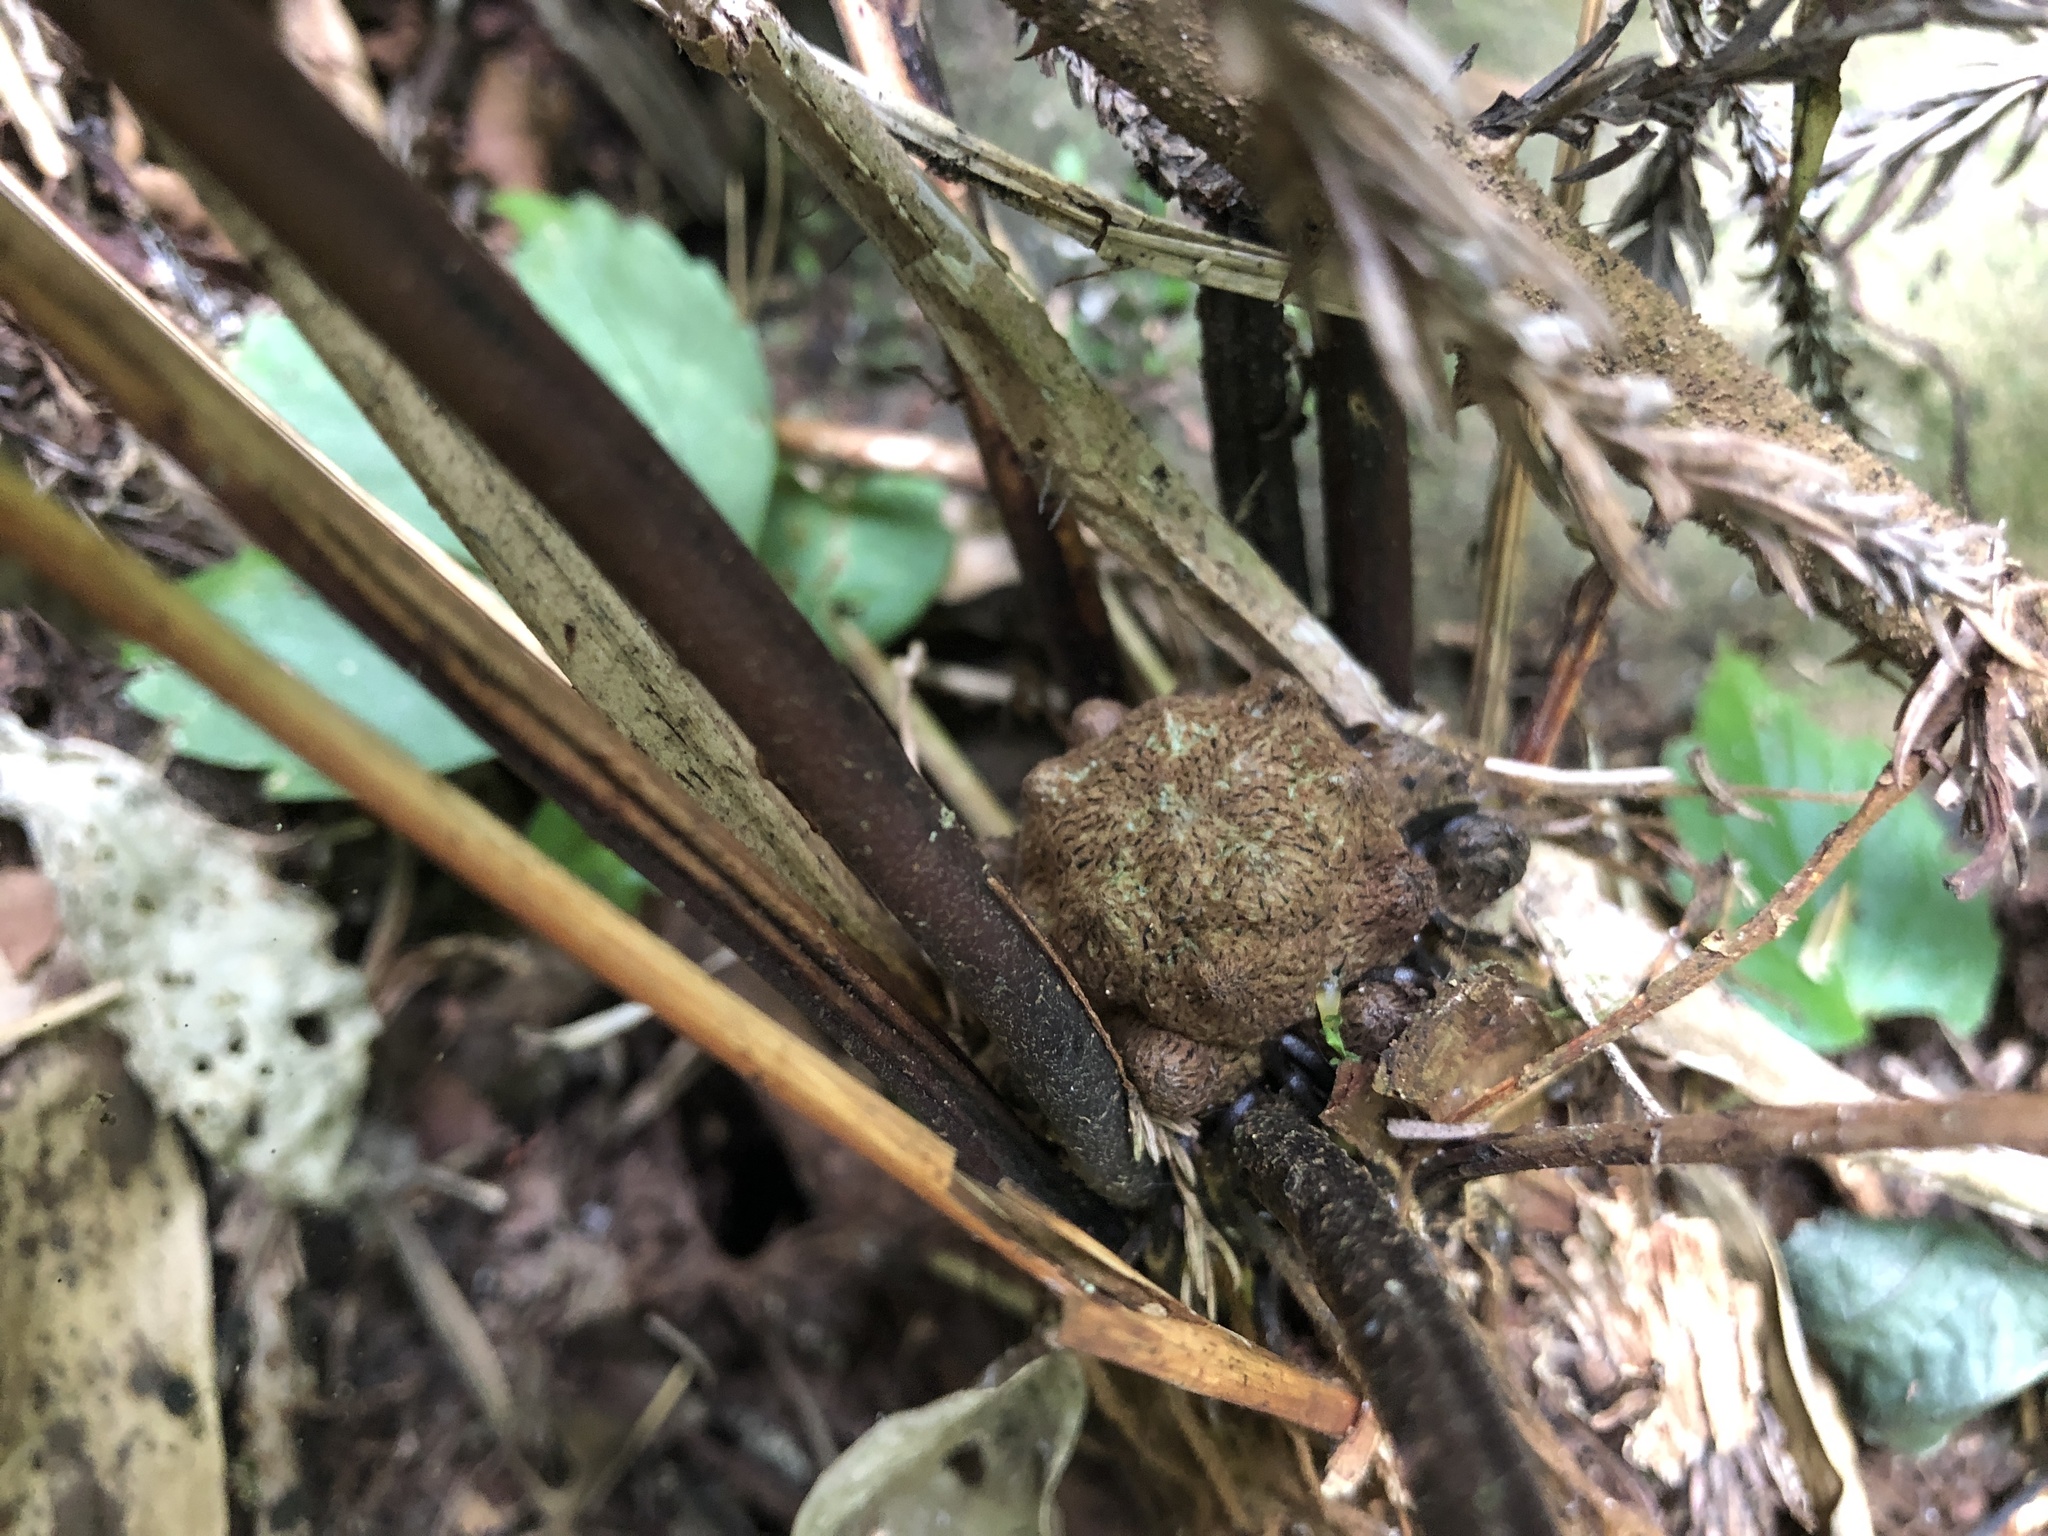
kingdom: Plantae
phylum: Tracheophyta
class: Polypodiopsida
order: Polypodiales
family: Pteridaceae
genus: Pteris
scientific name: Pteris setulosocostulata
